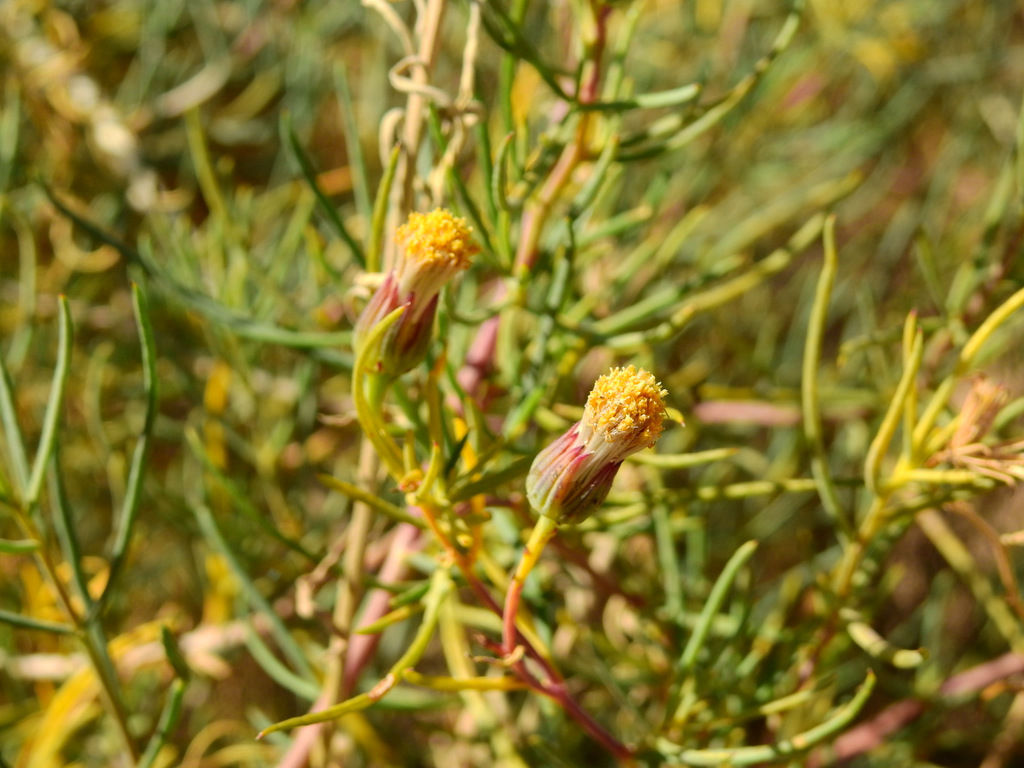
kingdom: Plantae
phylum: Tracheophyta
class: Magnoliopsida
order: Asterales
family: Asteraceae
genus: Senecio
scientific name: Senecio subulatus
